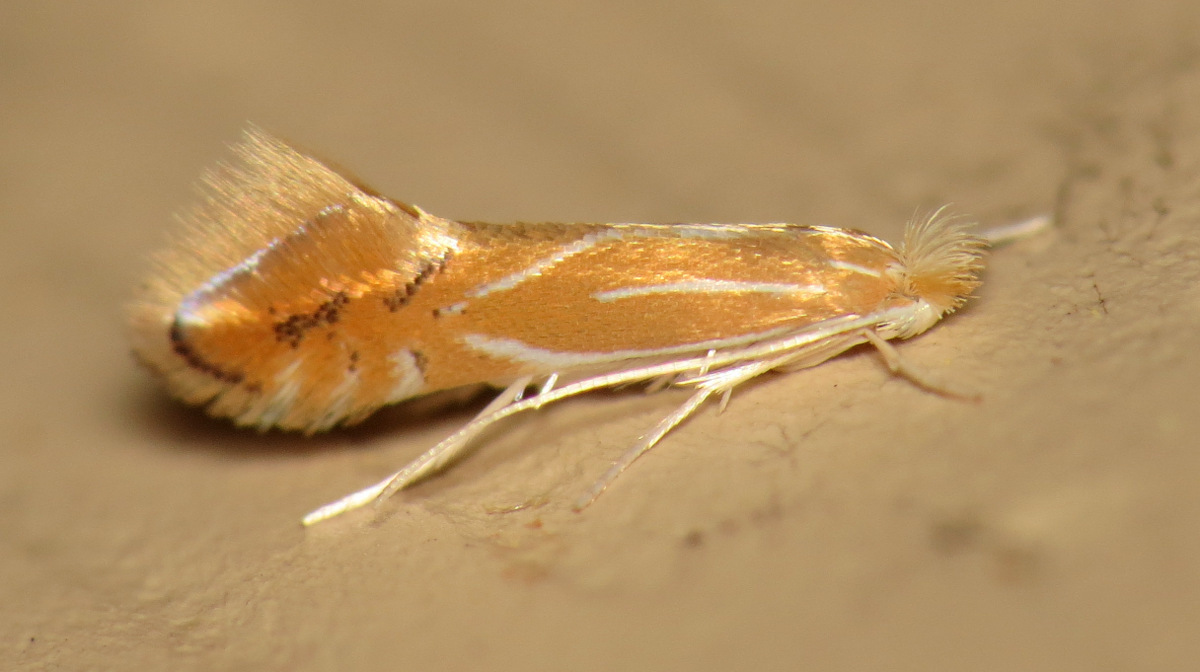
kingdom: Animalia
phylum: Arthropoda
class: Insecta
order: Lepidoptera
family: Gracillariidae
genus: Phyllonorycter
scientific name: Phyllonorycter basistrigella
